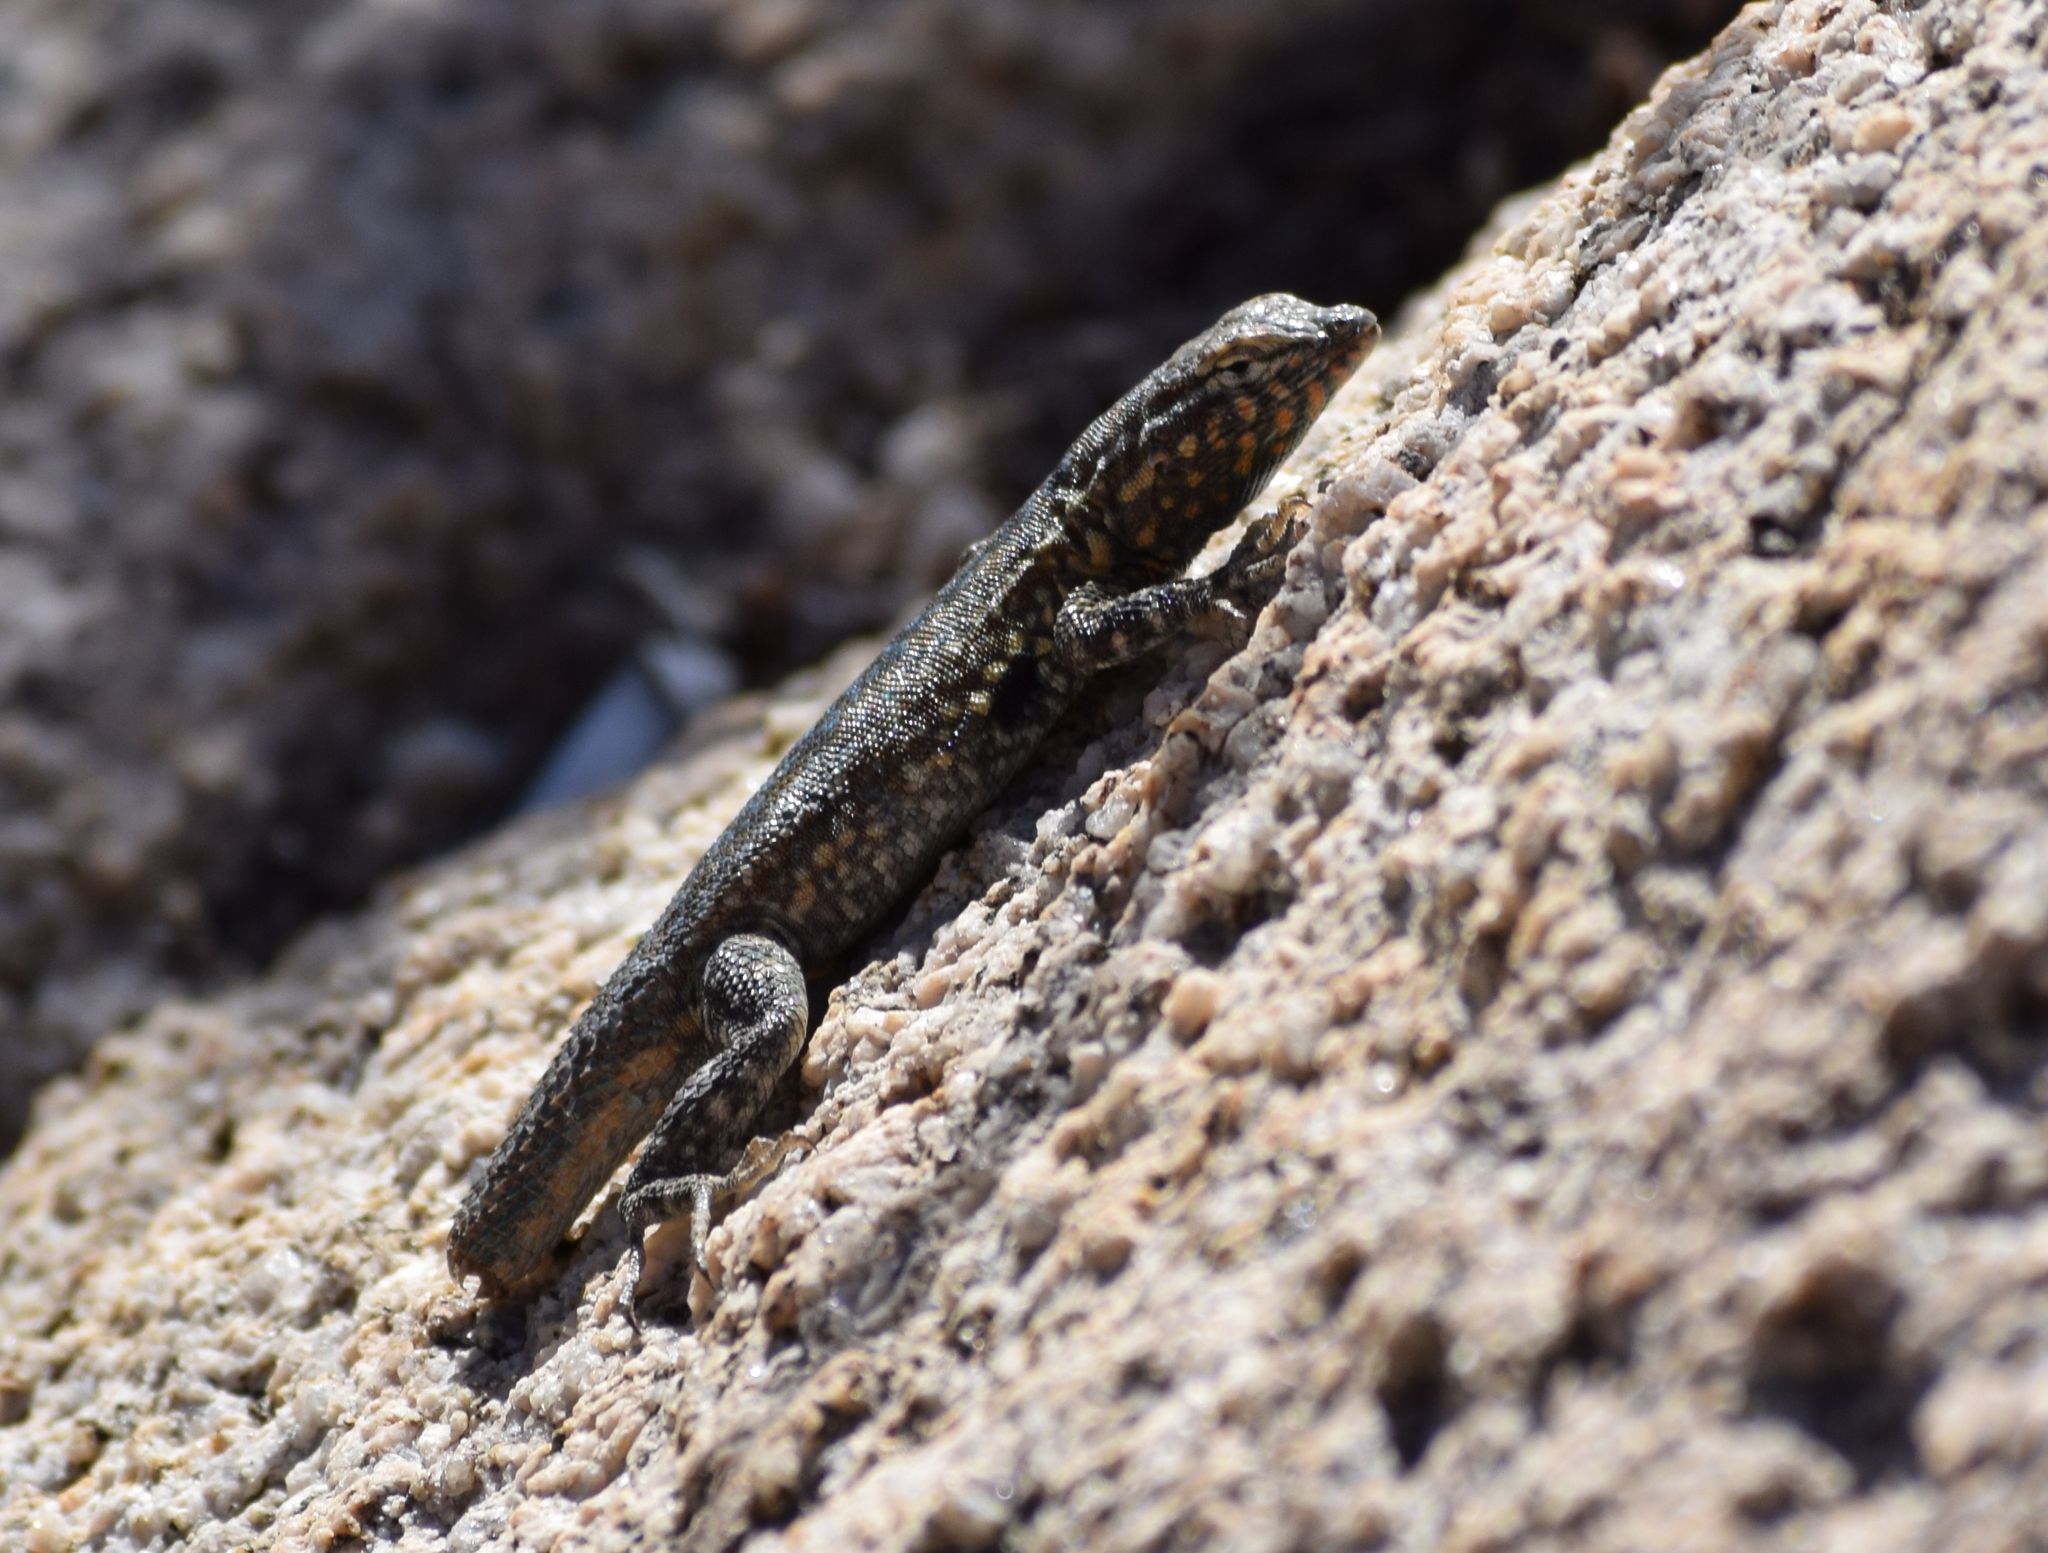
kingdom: Animalia
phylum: Chordata
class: Squamata
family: Phrynosomatidae
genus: Uta
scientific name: Uta stansburiana
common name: Side-blotched lizard
